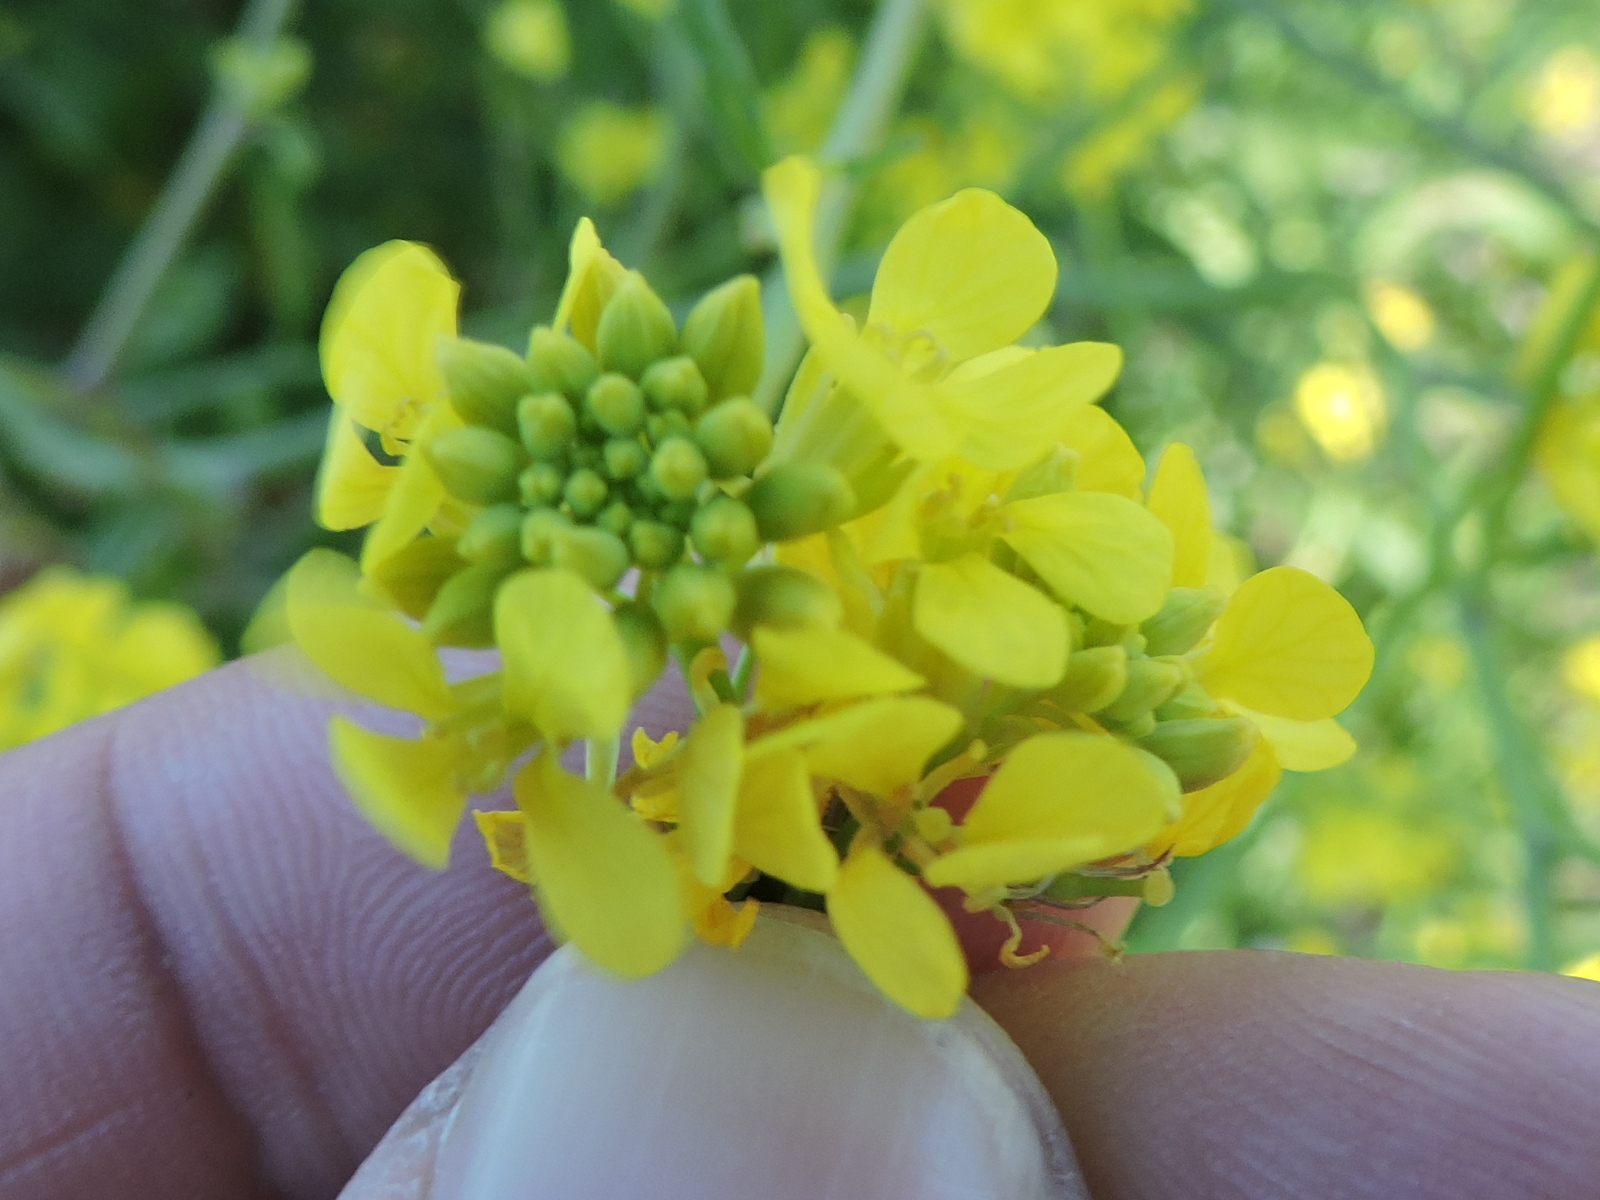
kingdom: Plantae
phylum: Tracheophyta
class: Magnoliopsida
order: Brassicales
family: Brassicaceae
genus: Rapistrum
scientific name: Rapistrum rugosum
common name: Annual bastardcabbage
